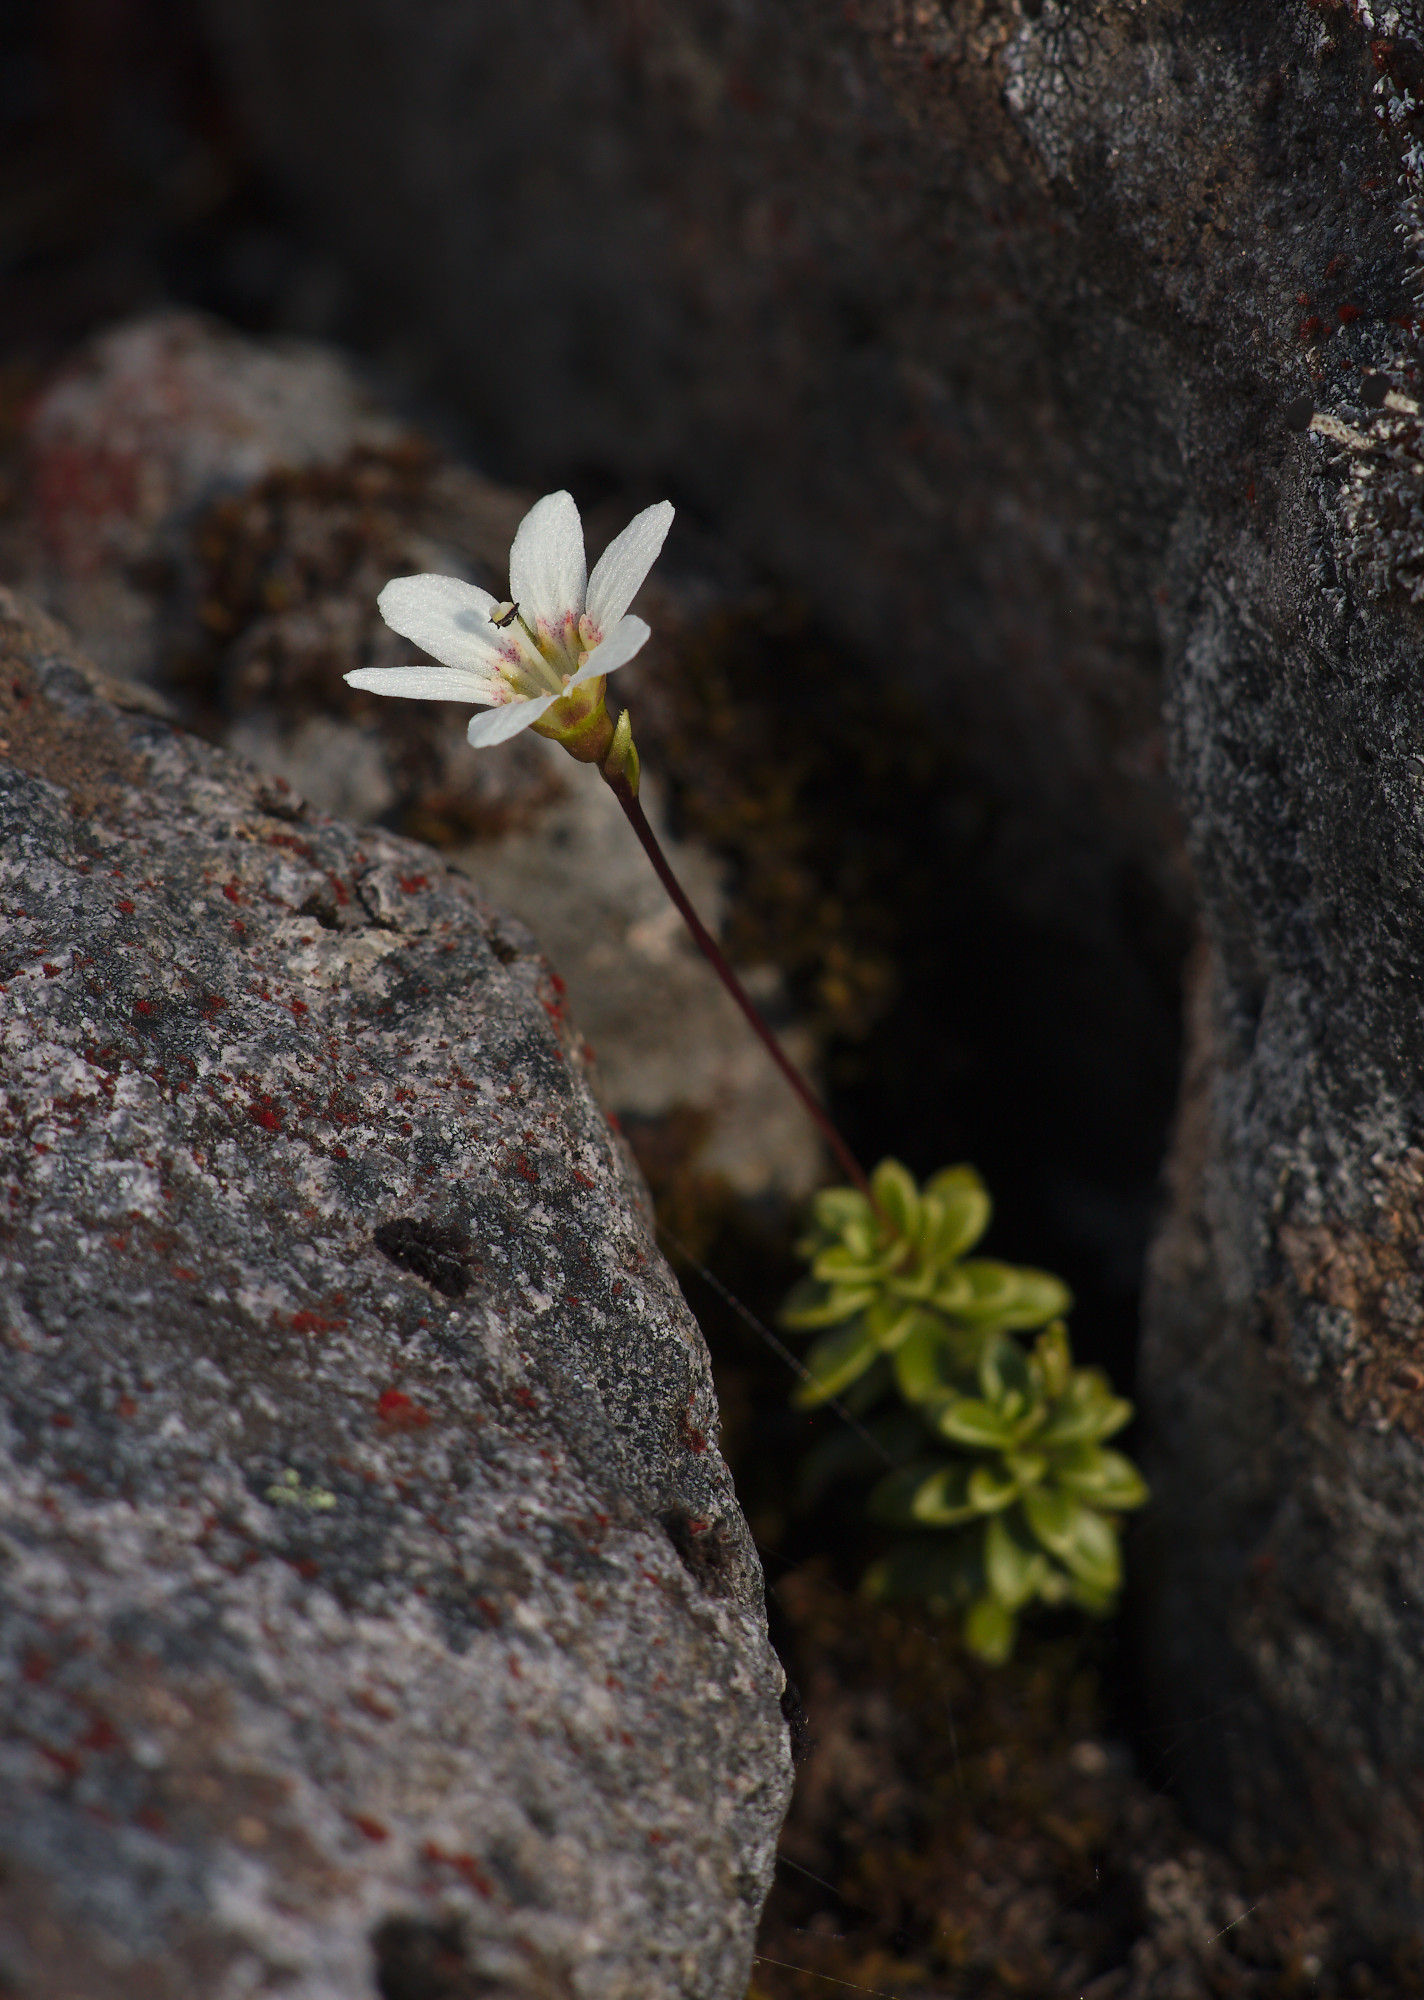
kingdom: Plantae
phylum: Tracheophyta
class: Magnoliopsida
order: Asterales
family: Stylidiaceae
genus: Forstera
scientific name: Forstera tenella
